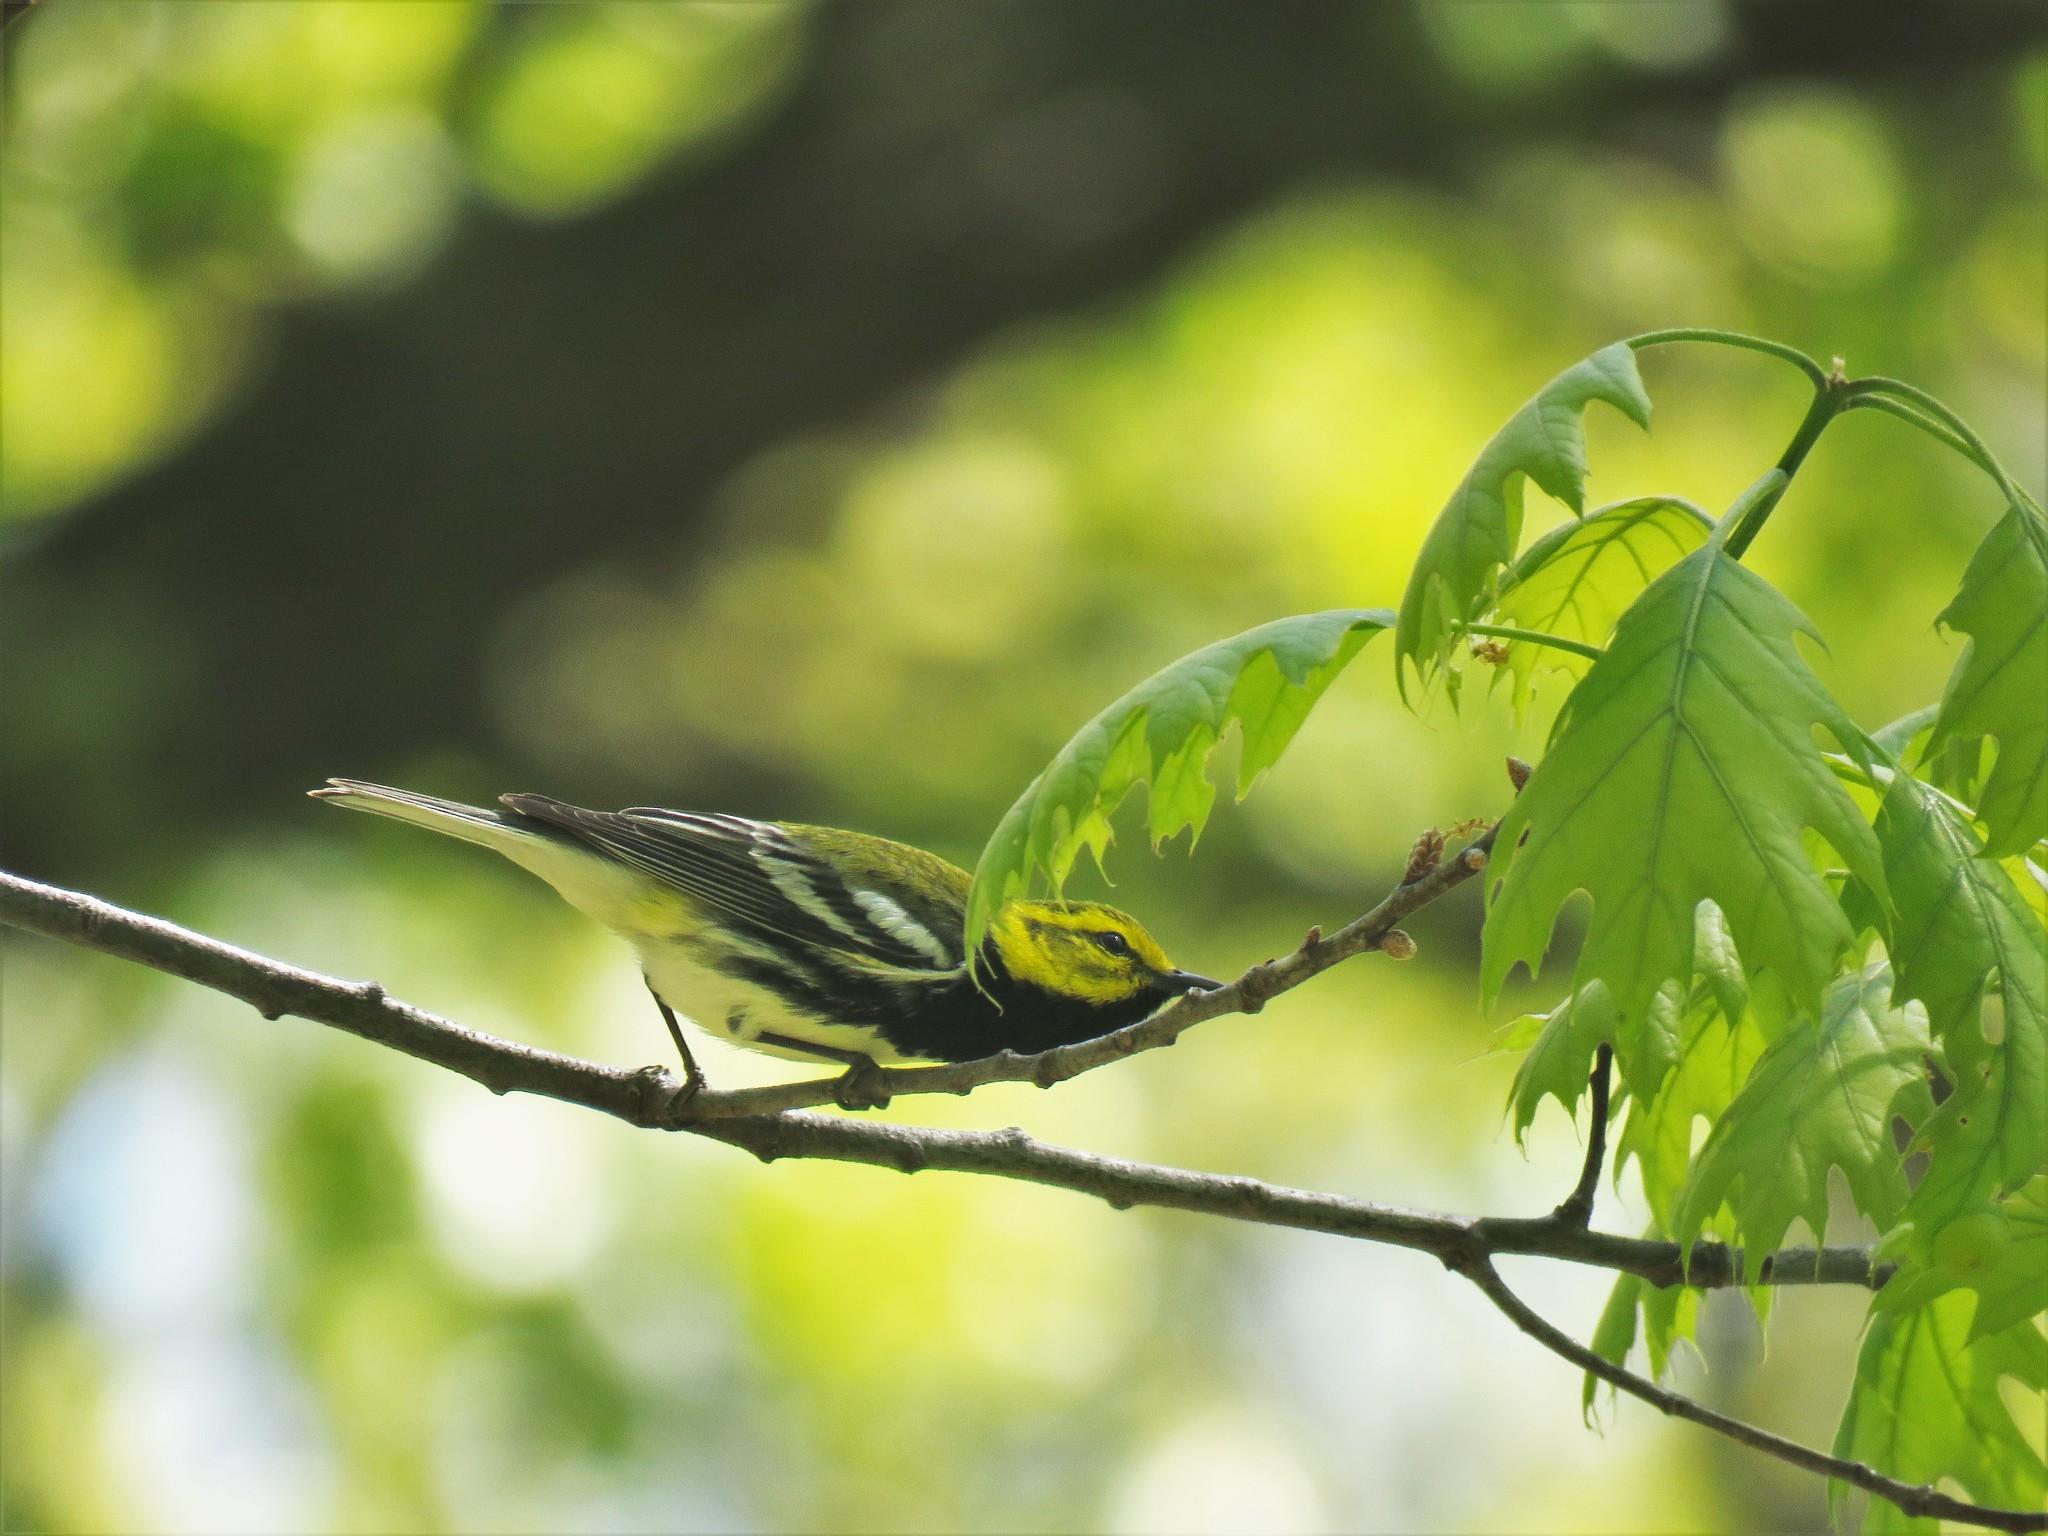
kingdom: Animalia
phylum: Chordata
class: Aves
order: Passeriformes
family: Parulidae
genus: Setophaga
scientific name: Setophaga virens
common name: Black-throated green warbler
